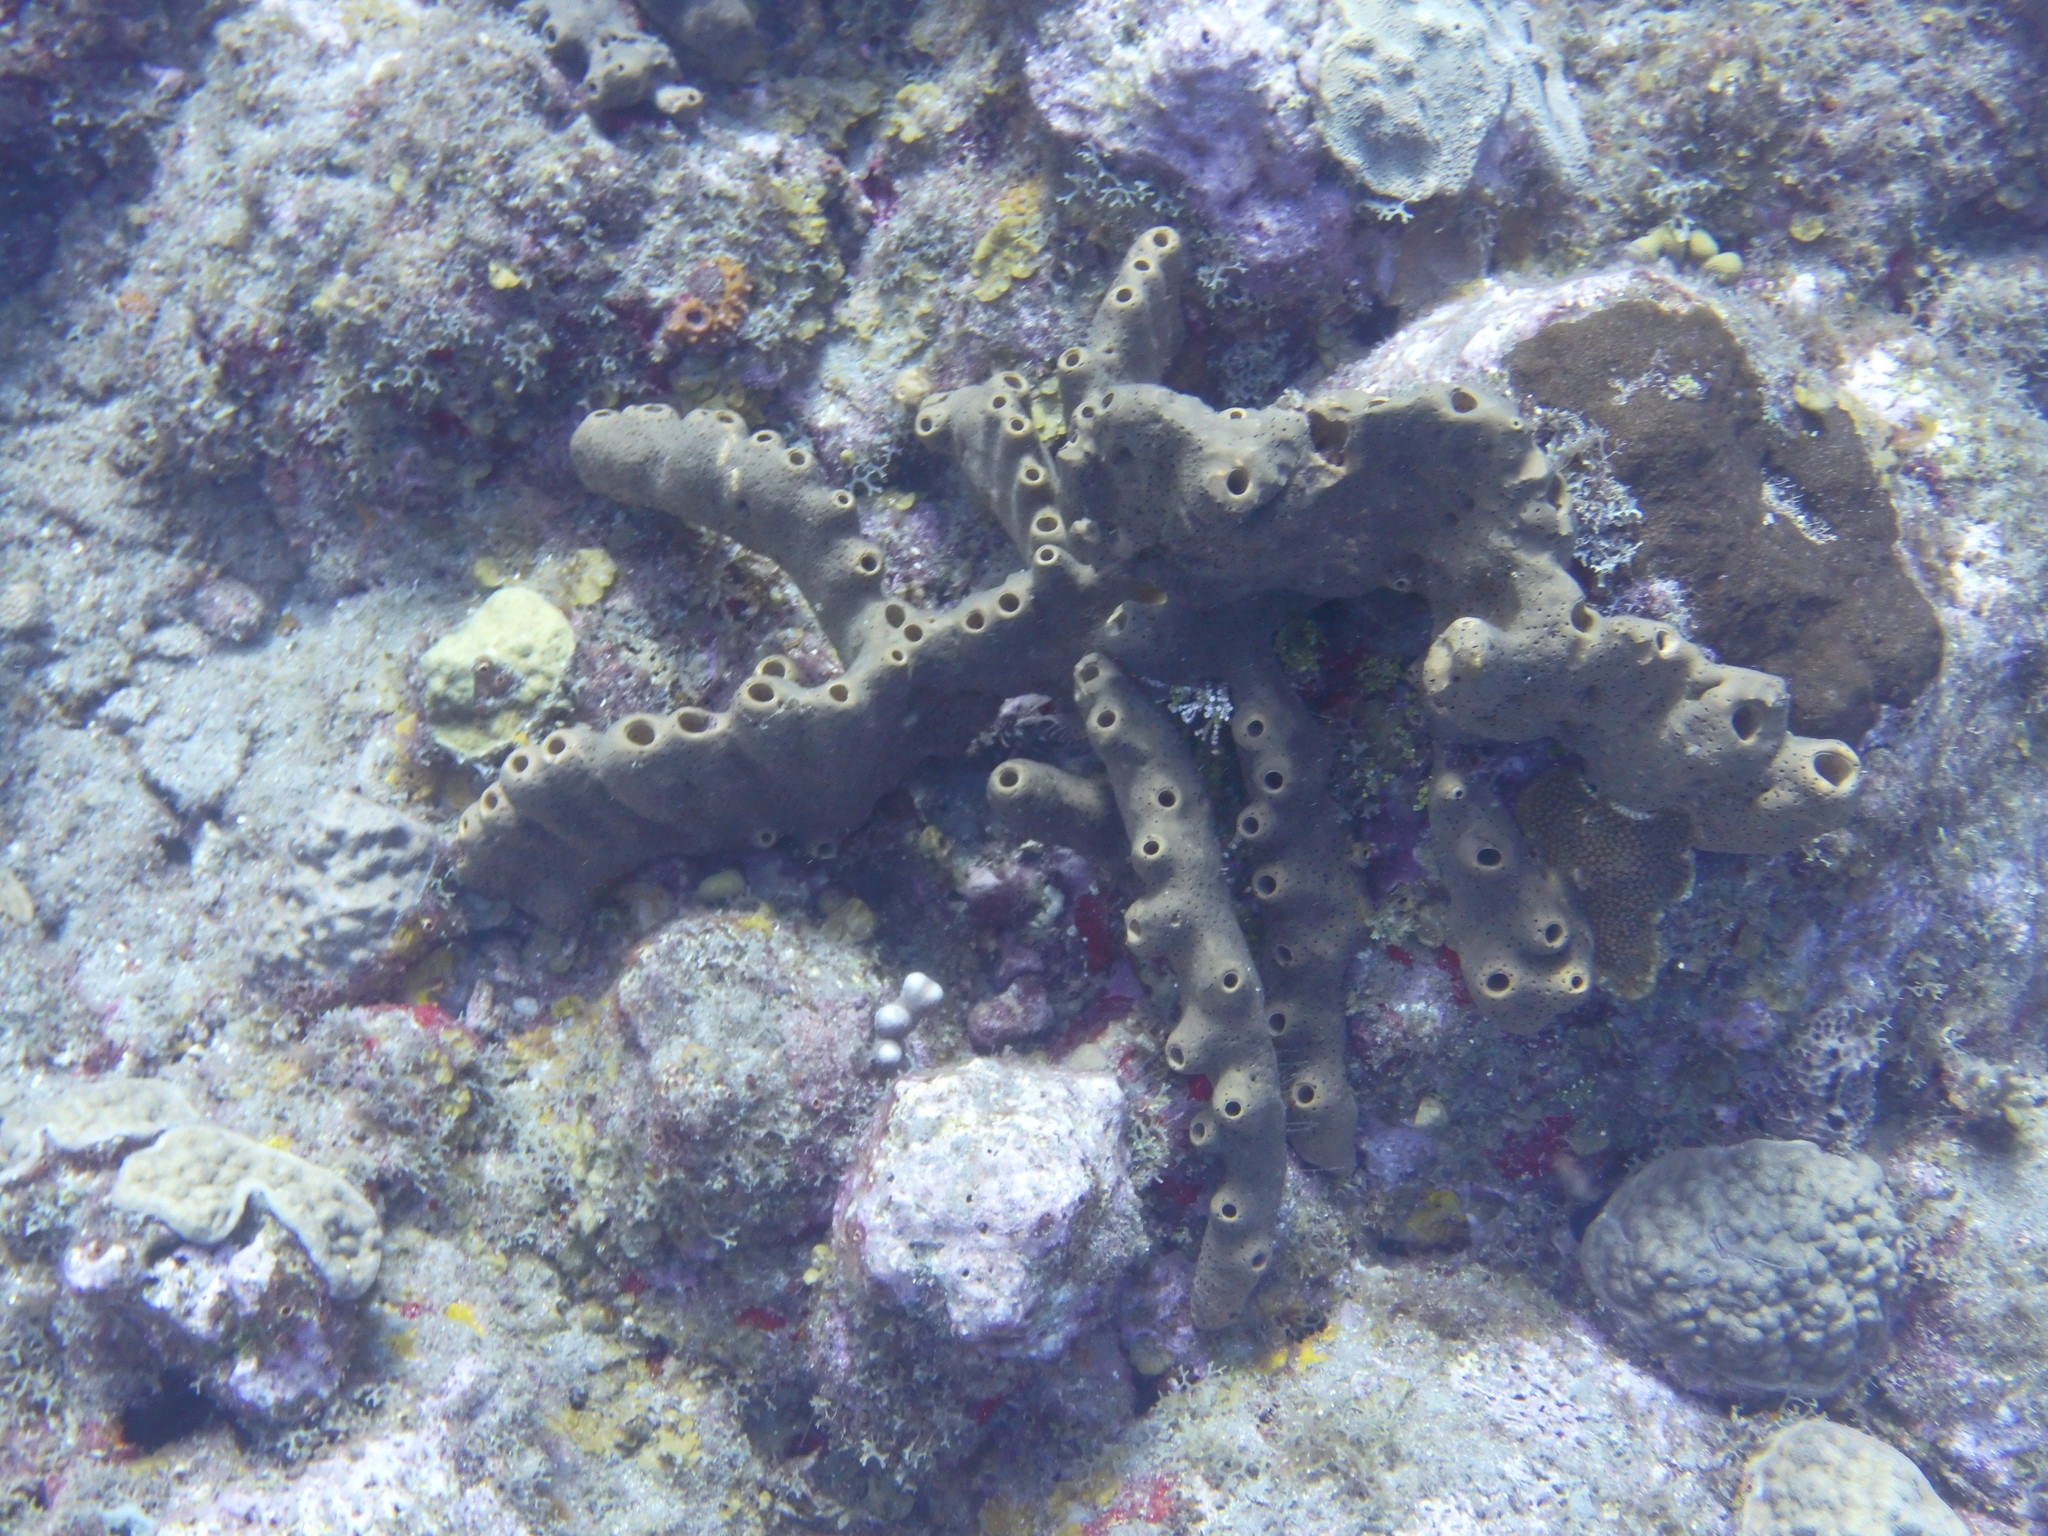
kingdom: Animalia
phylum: Porifera
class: Demospongiae
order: Agelasida
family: Agelasidae
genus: Agelas
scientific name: Agelas conifera
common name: Brown tube sponge
